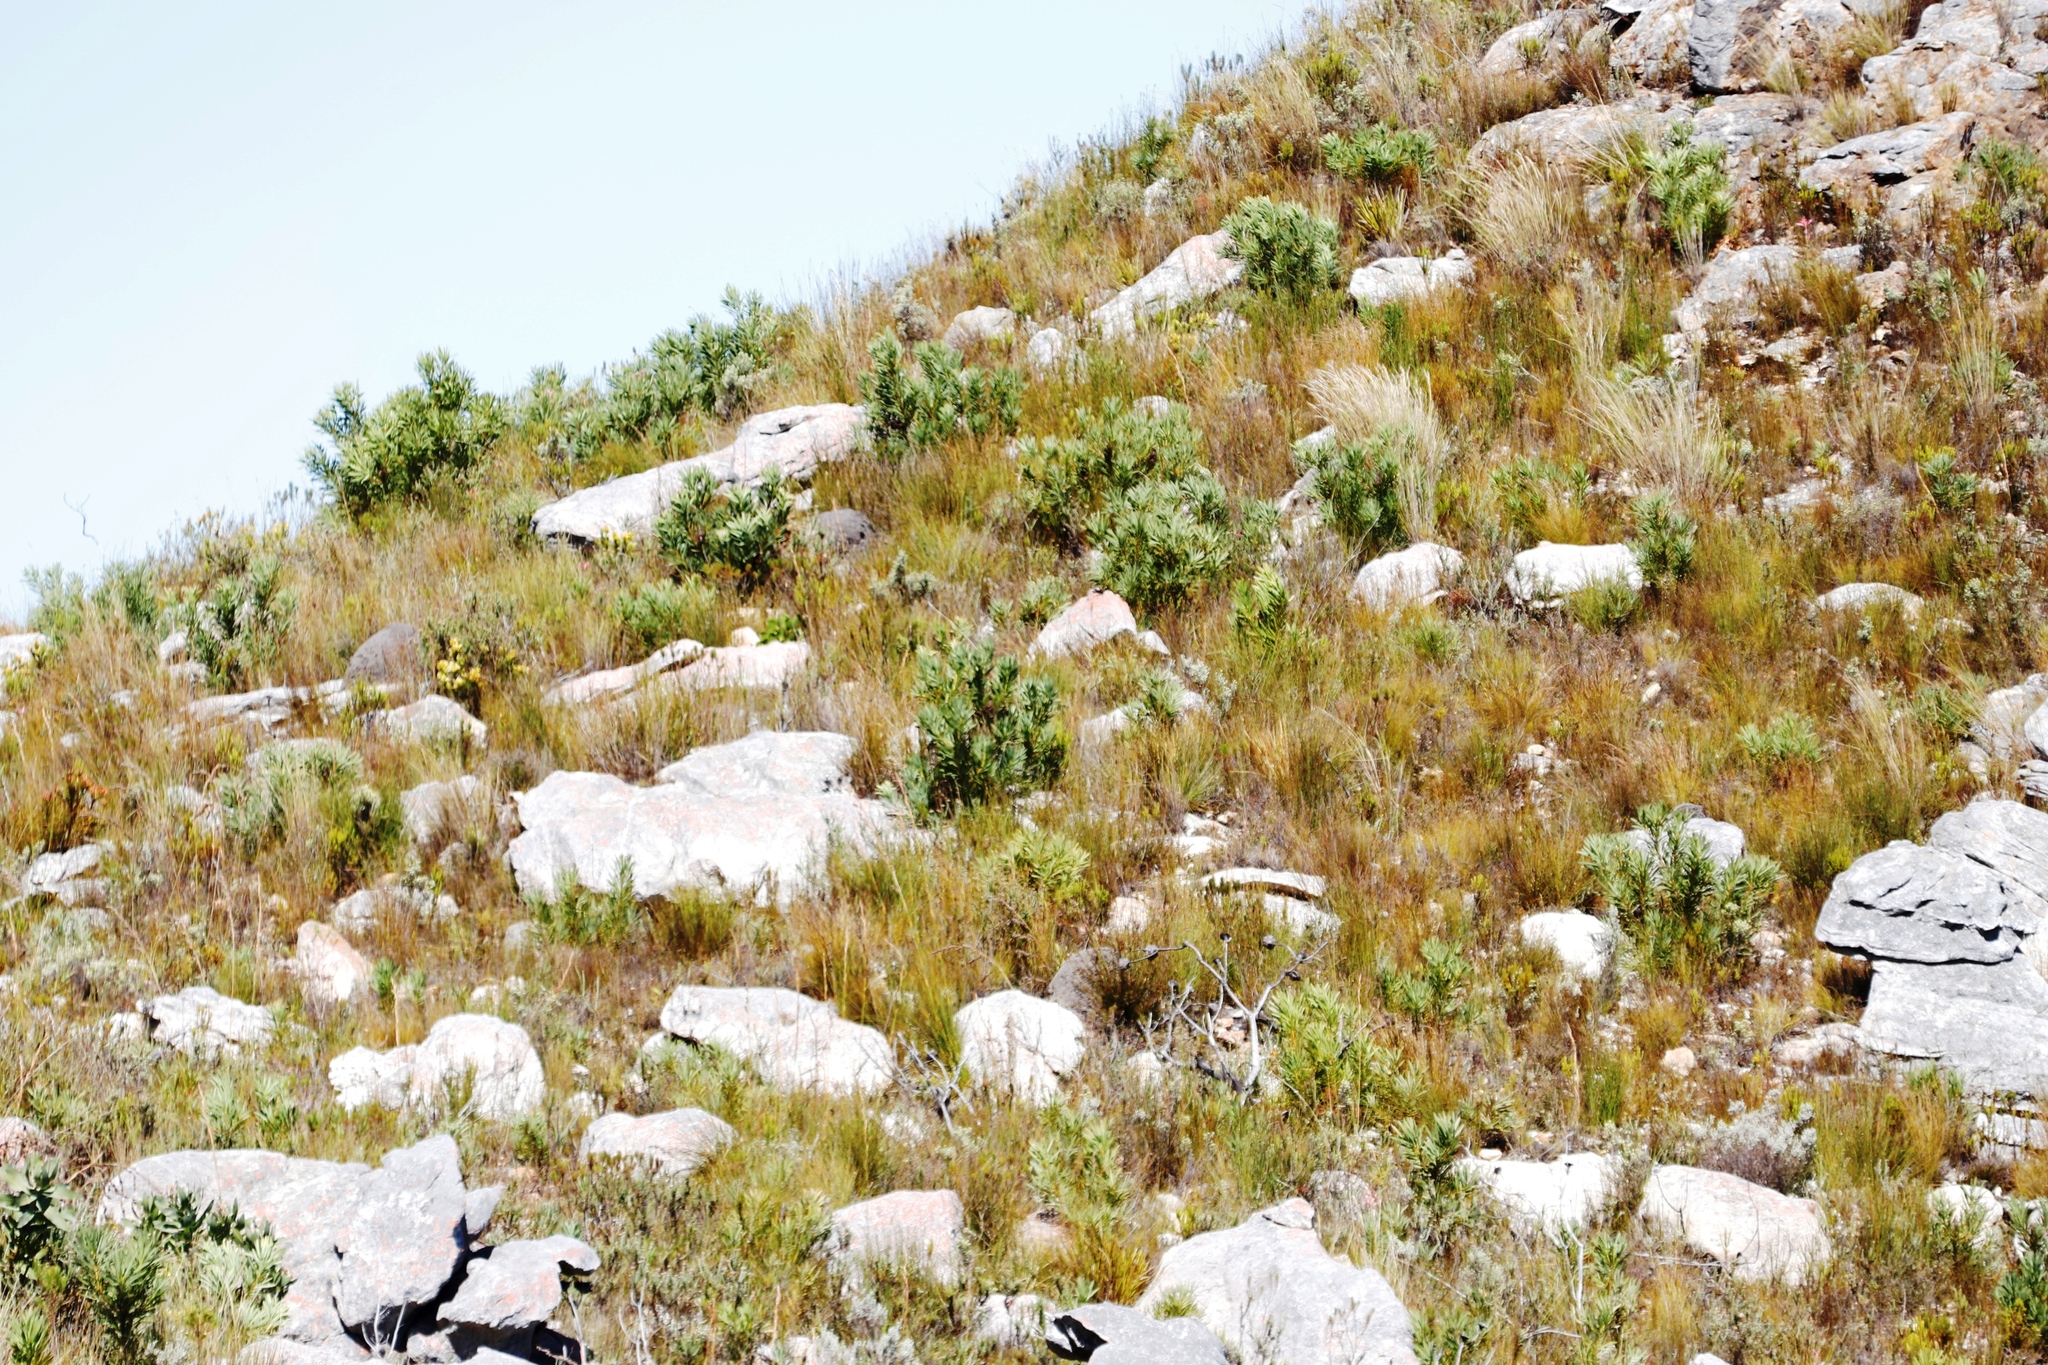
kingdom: Plantae
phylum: Tracheophyta
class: Magnoliopsida
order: Proteales
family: Proteaceae
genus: Protea
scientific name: Protea repens
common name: Sugarbush
